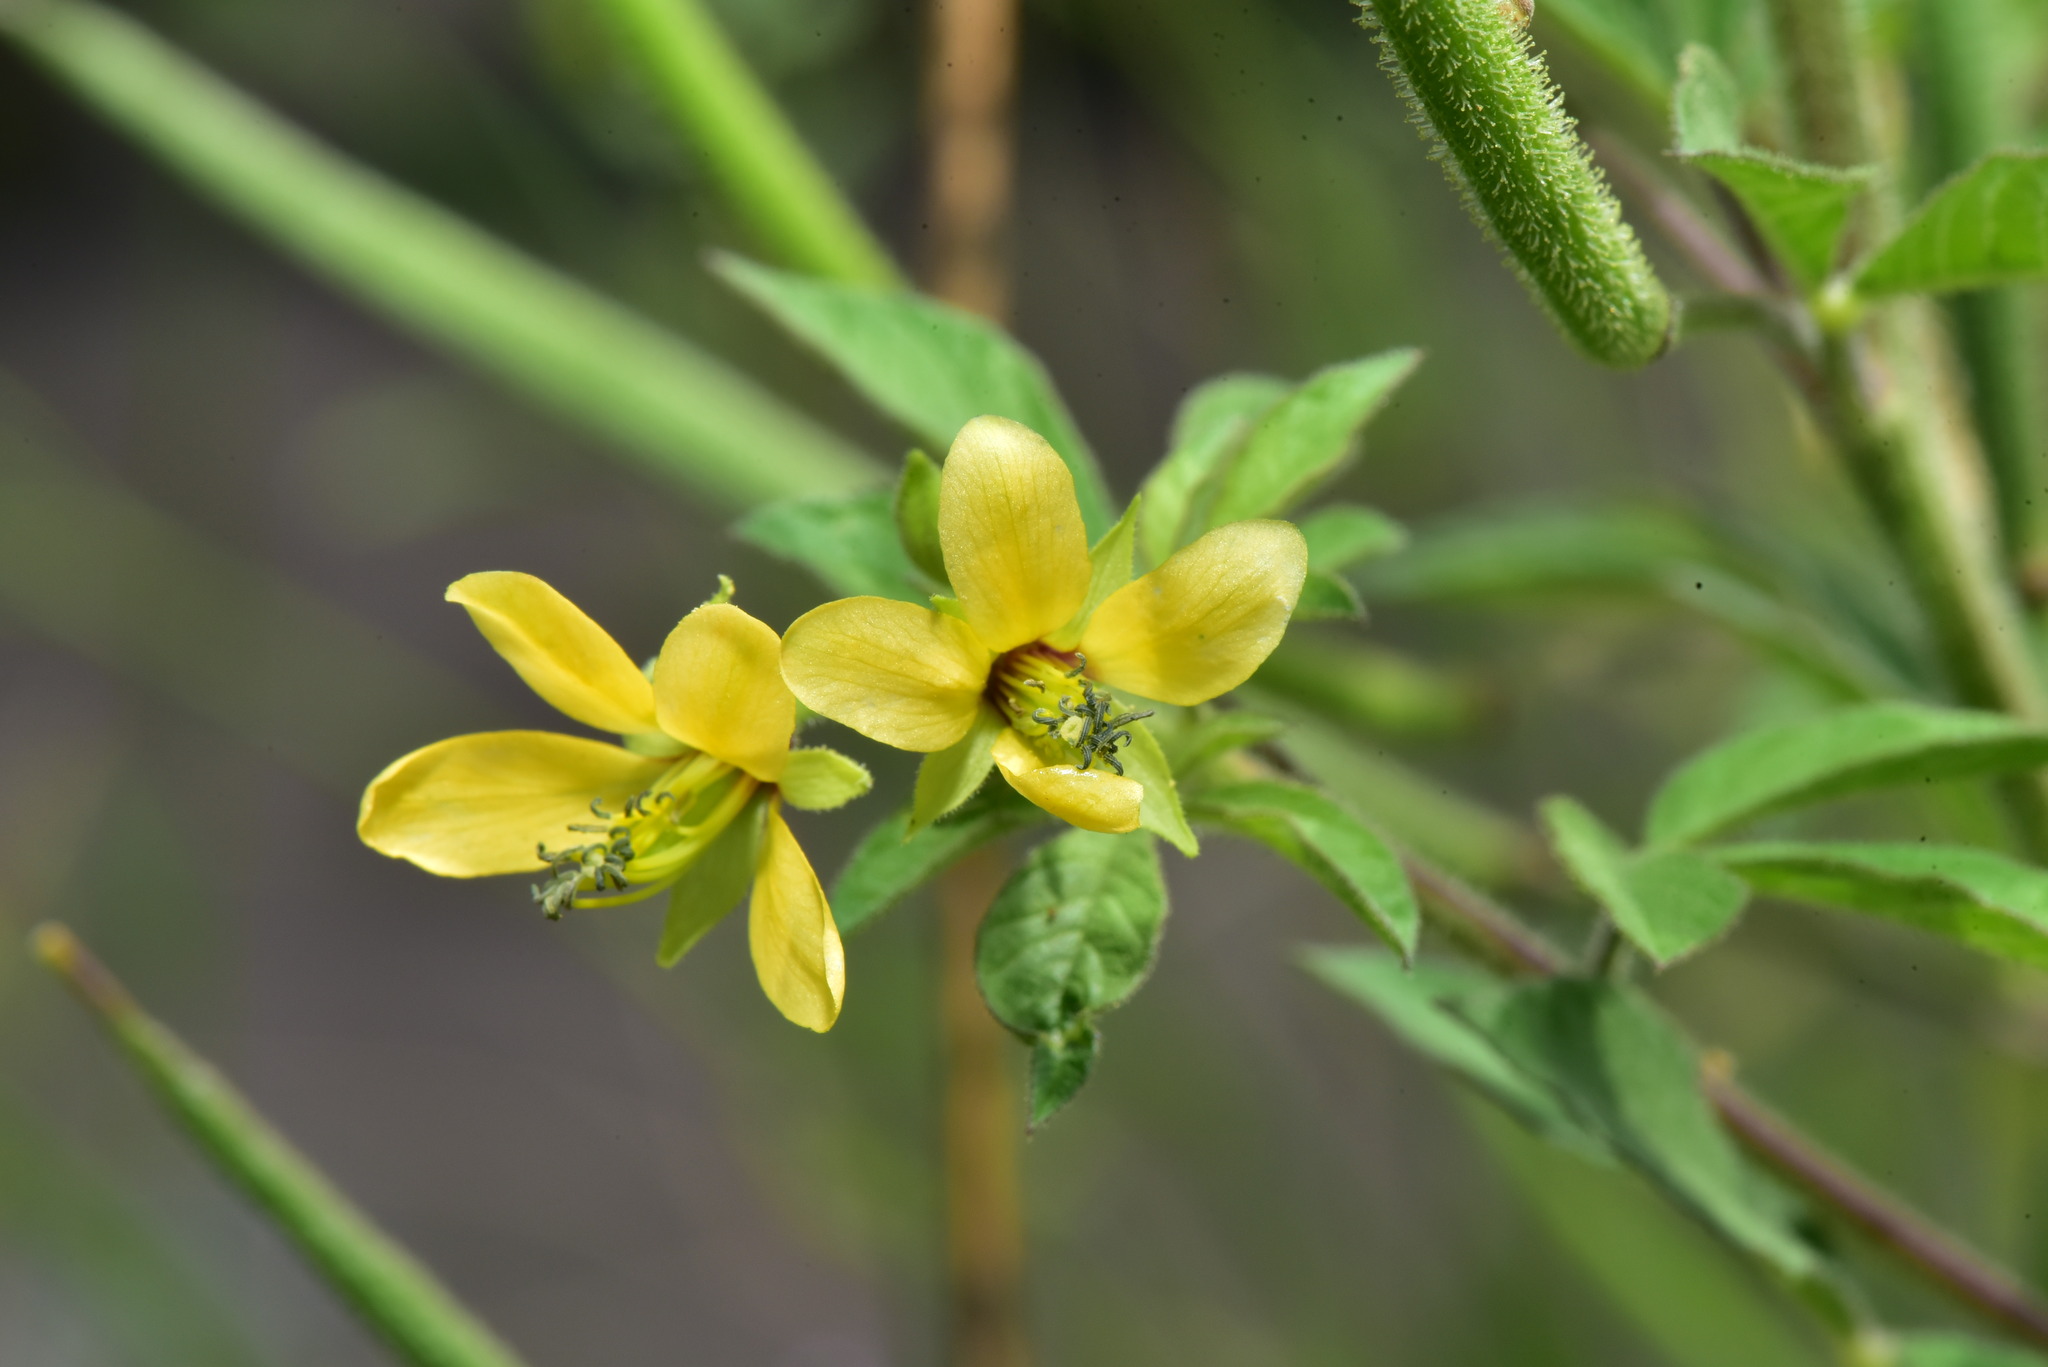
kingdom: Plantae
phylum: Tracheophyta
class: Magnoliopsida
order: Brassicales
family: Cleomaceae
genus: Arivela
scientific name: Arivela viscosa
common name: Asian spiderflower
